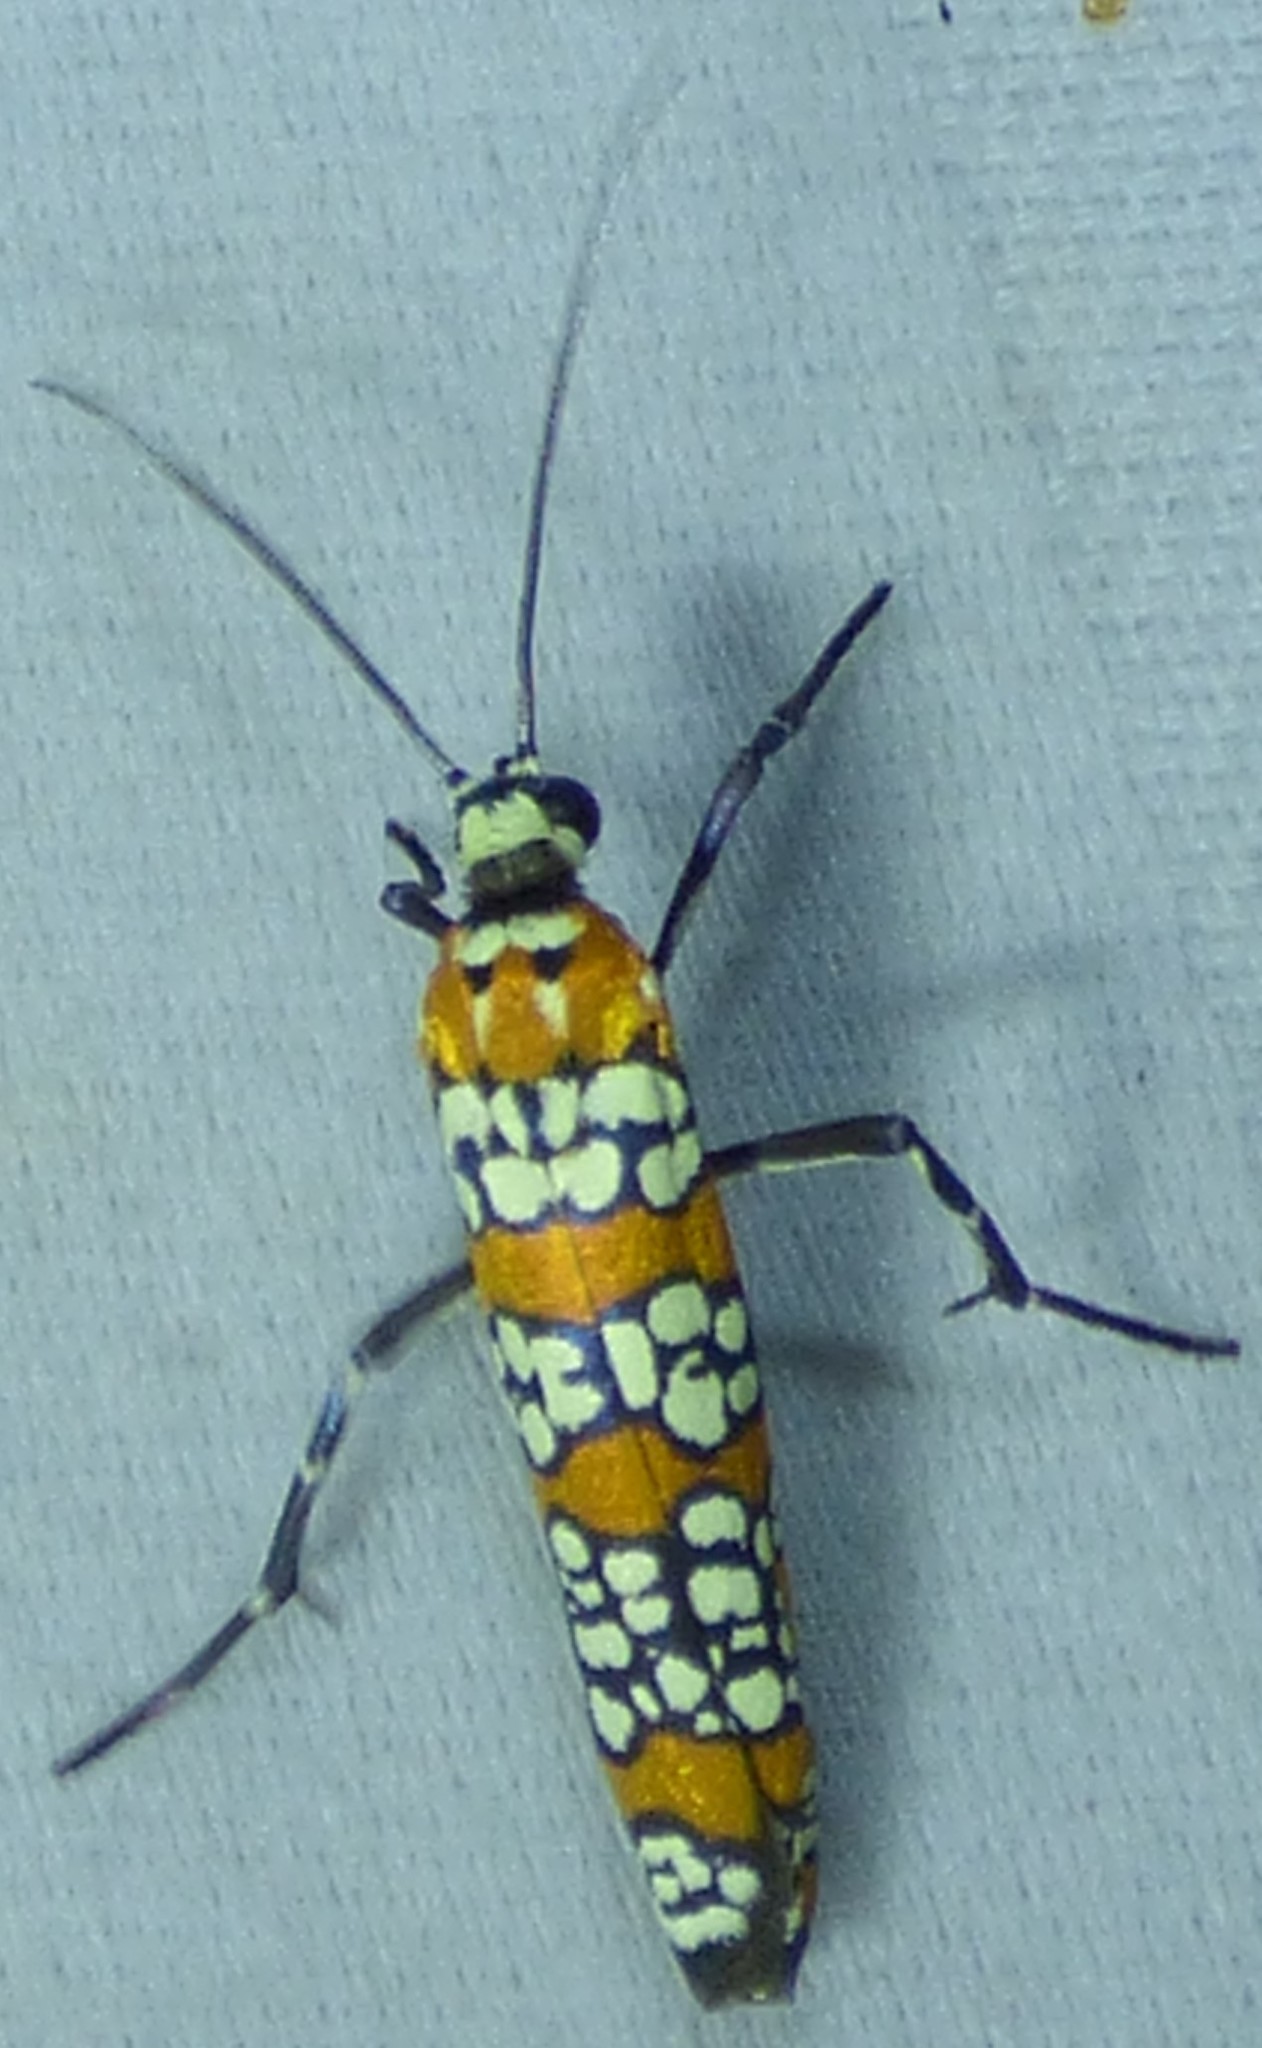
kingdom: Animalia
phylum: Arthropoda
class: Insecta
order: Lepidoptera
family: Attevidae
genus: Atteva
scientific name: Atteva punctella
